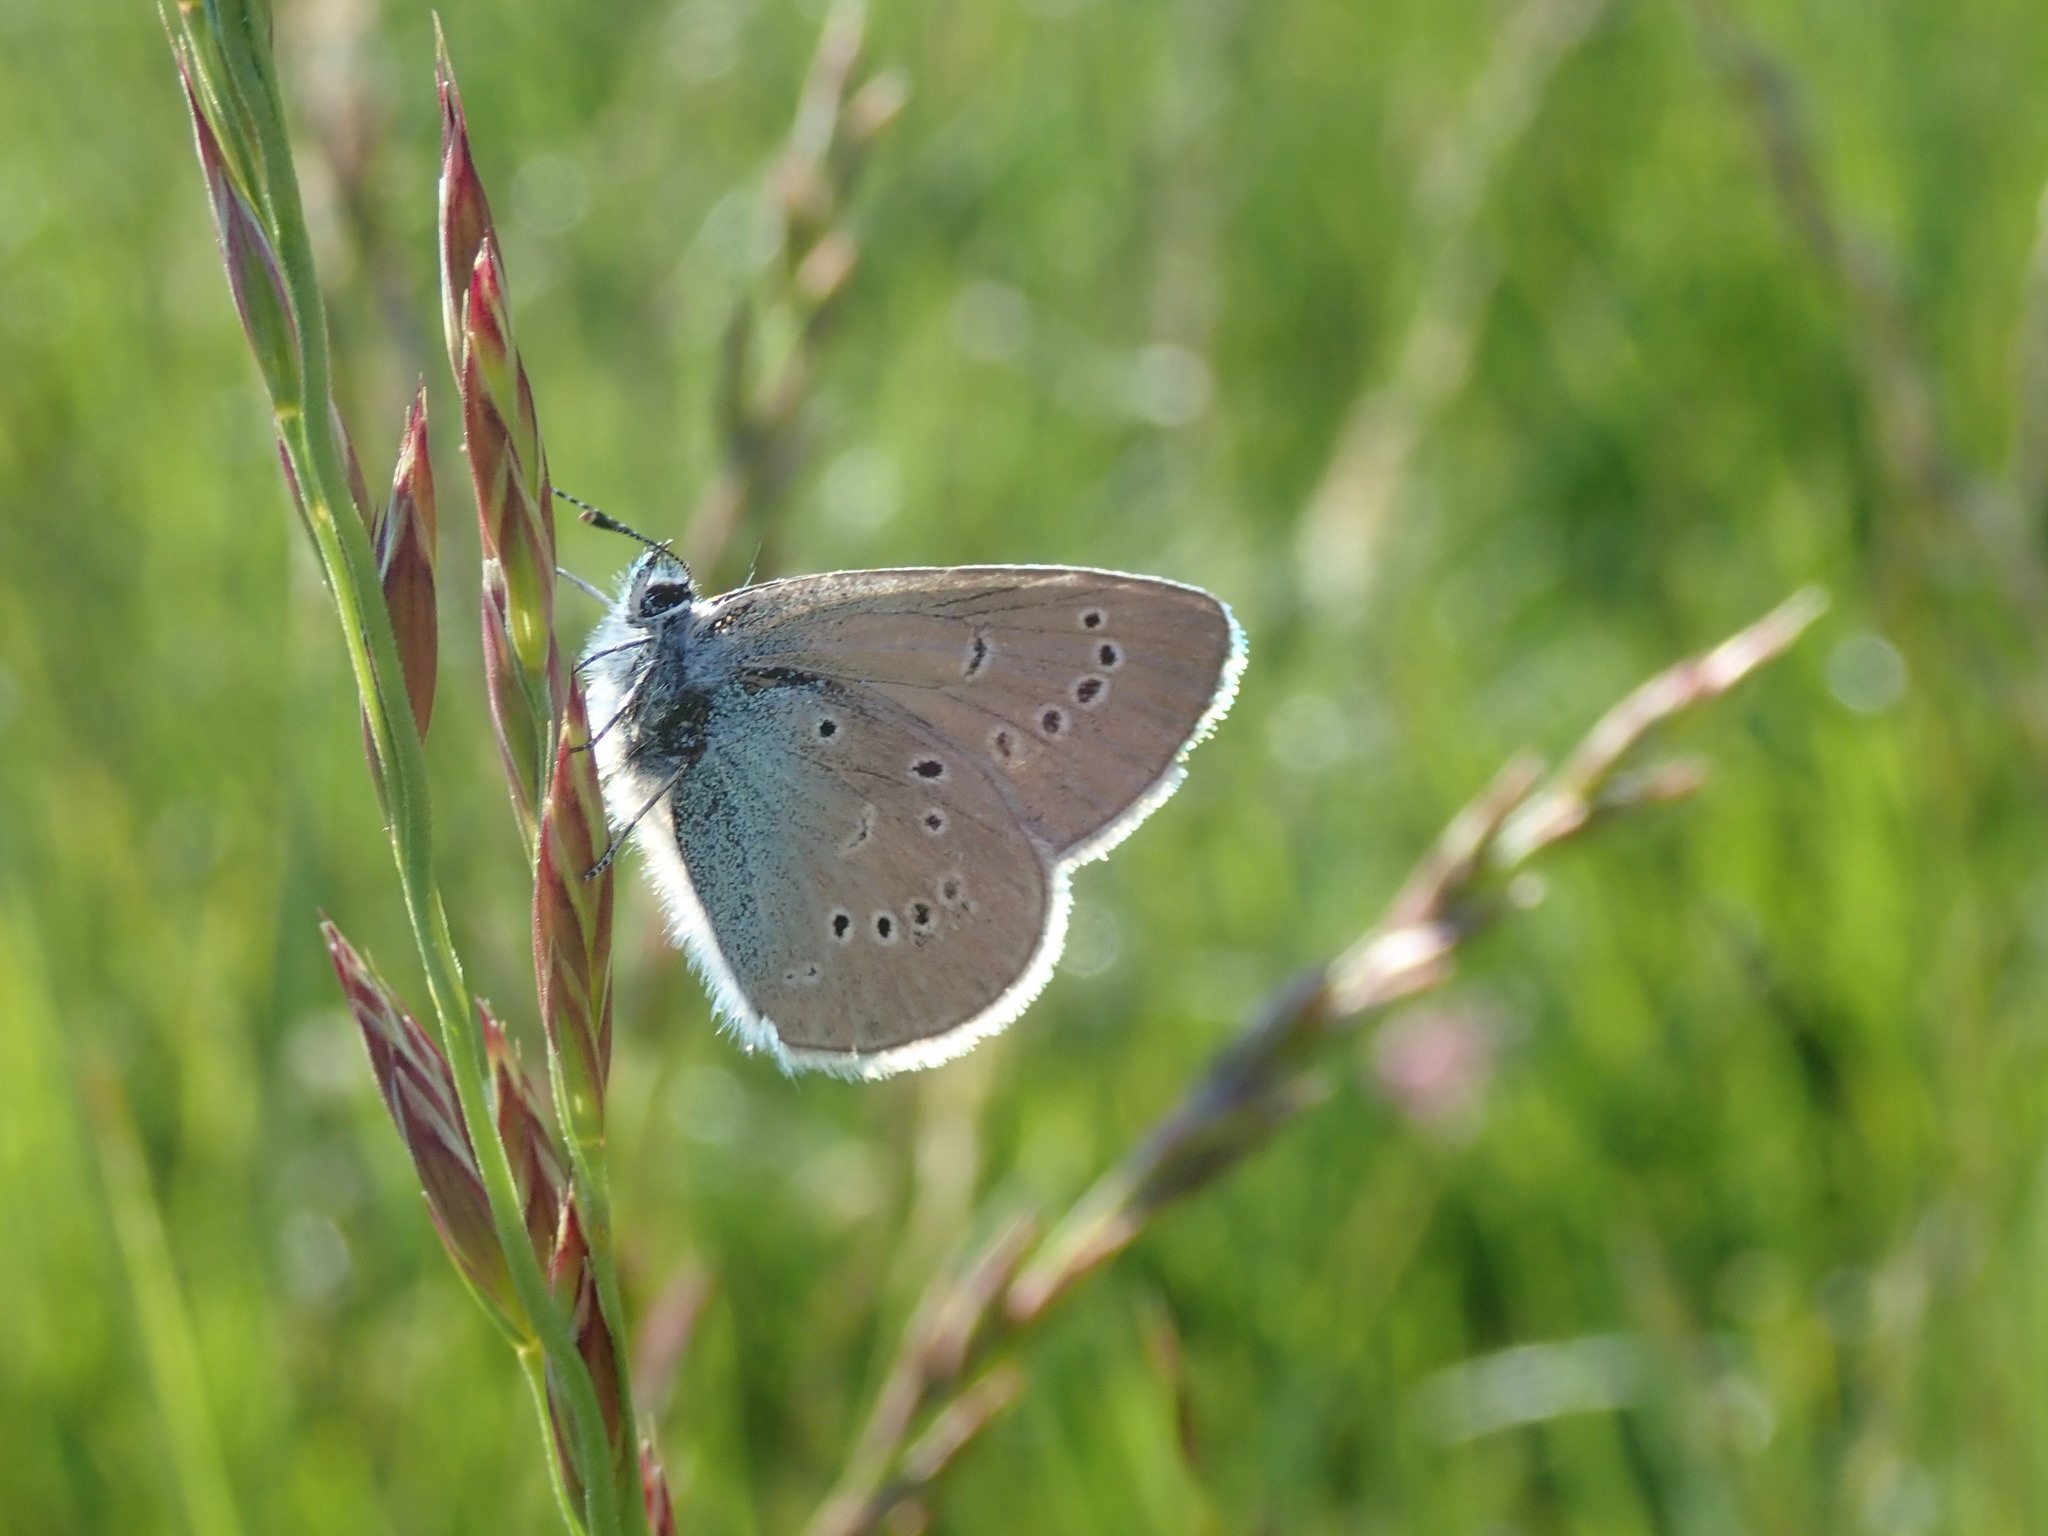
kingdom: Animalia
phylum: Arthropoda
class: Insecta
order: Lepidoptera
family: Lycaenidae
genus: Cyaniris
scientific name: Cyaniris semiargus
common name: Mazarine blue
